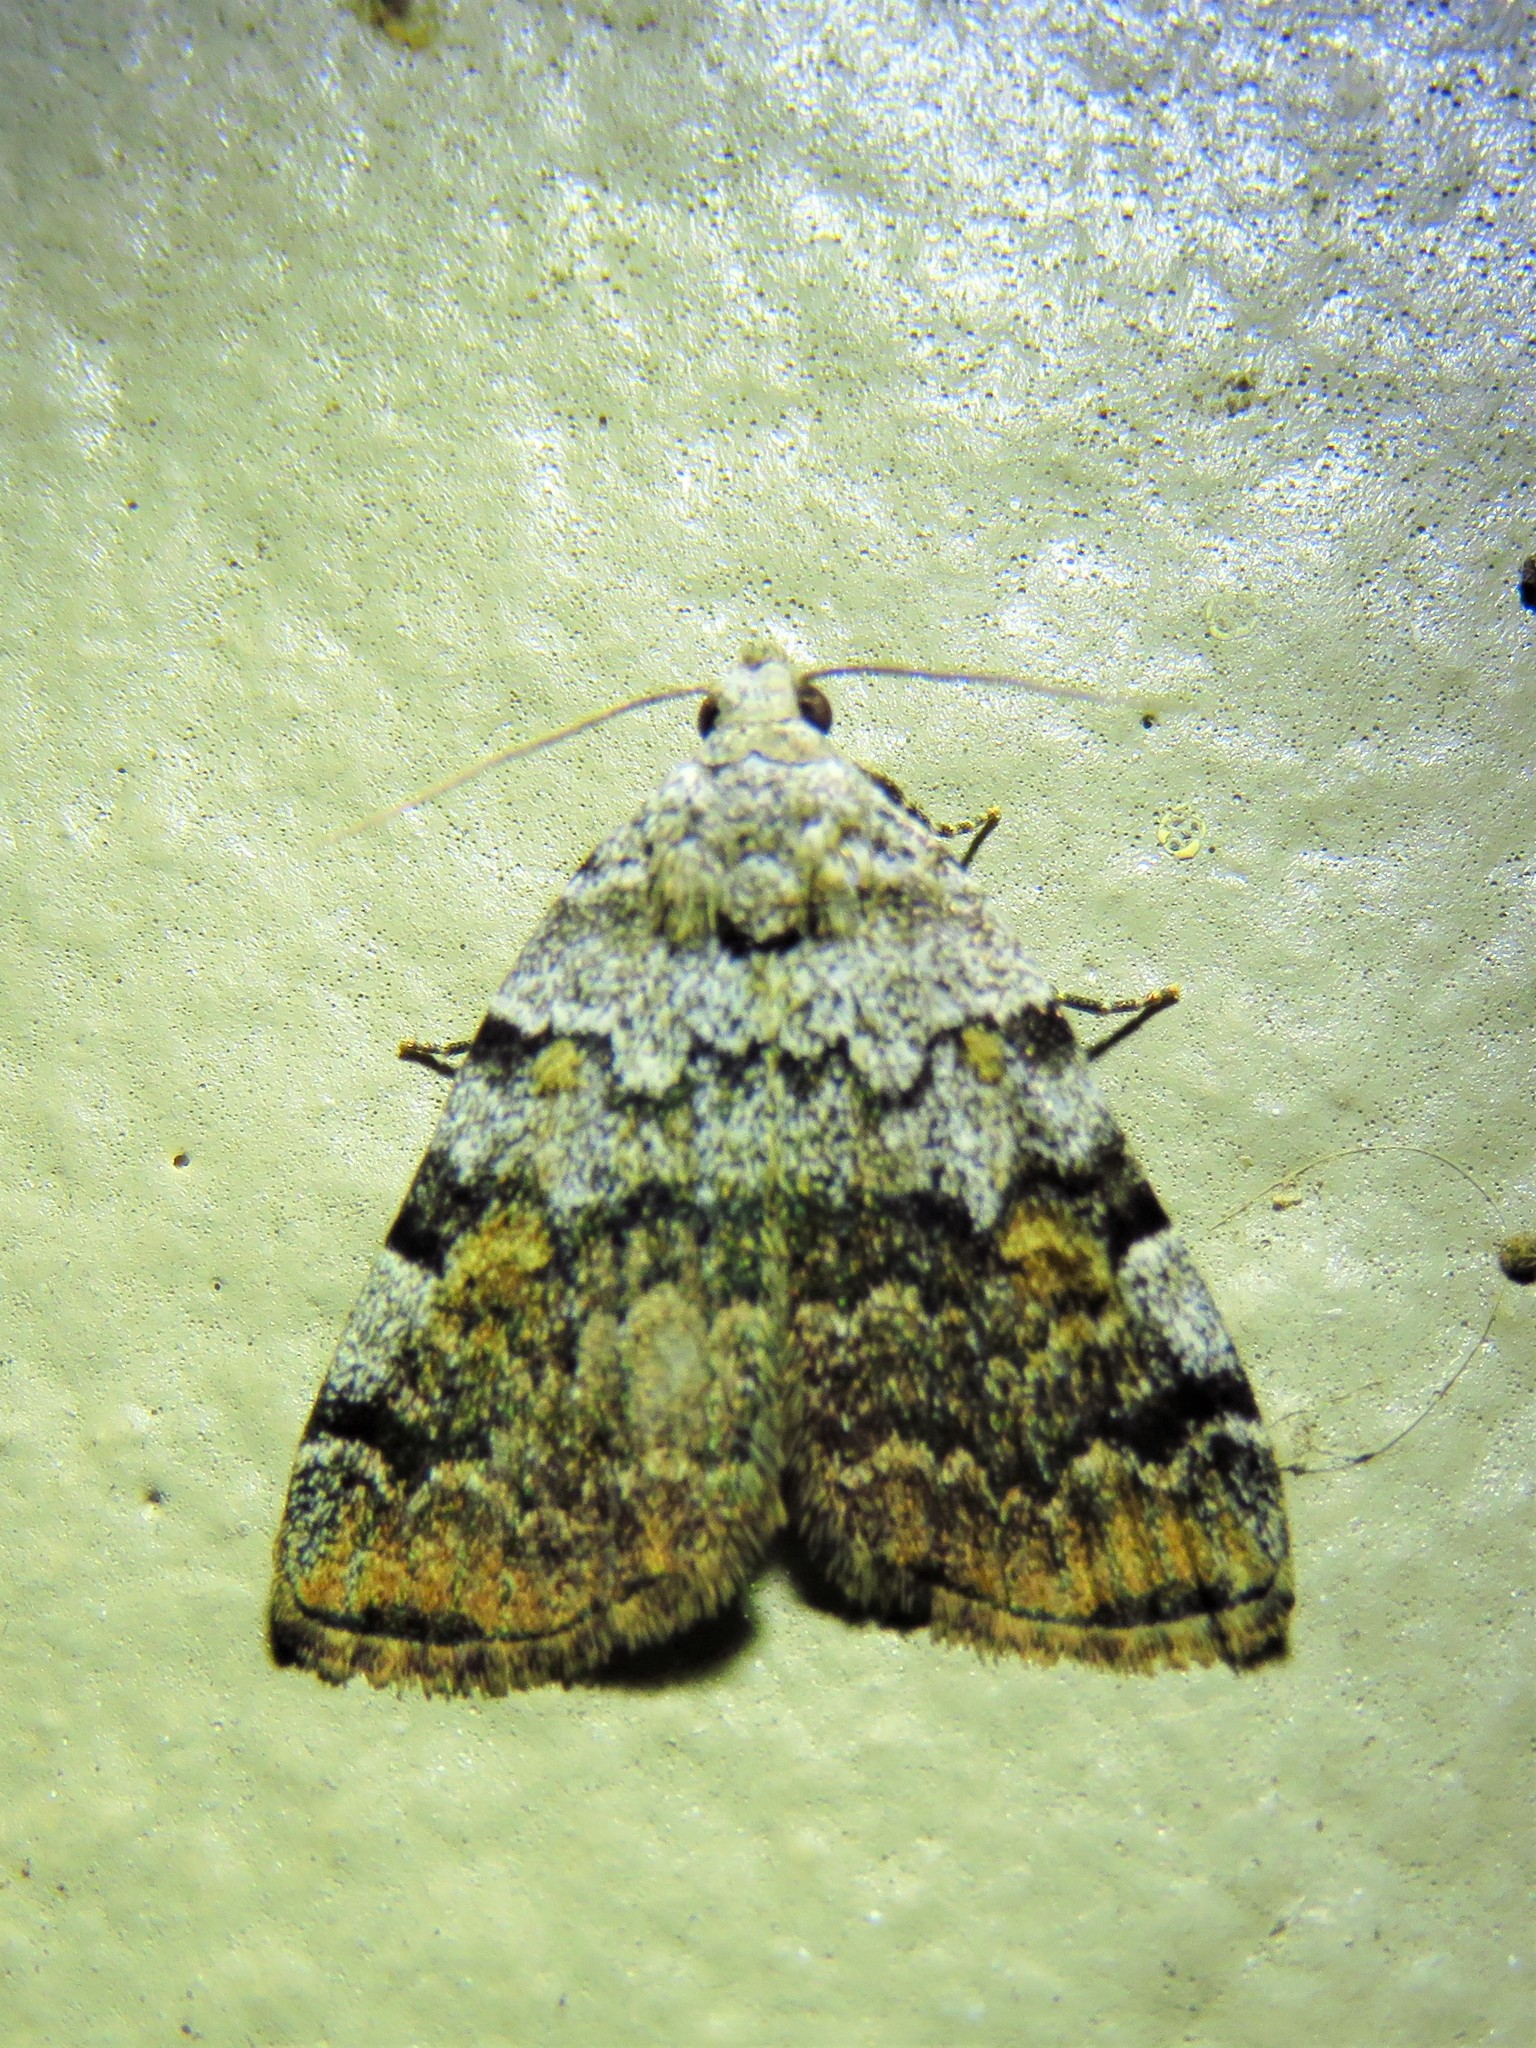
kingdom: Animalia
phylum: Arthropoda
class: Insecta
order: Lepidoptera
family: Erebidae
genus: Idia
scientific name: Idia americalis
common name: American idia moth
